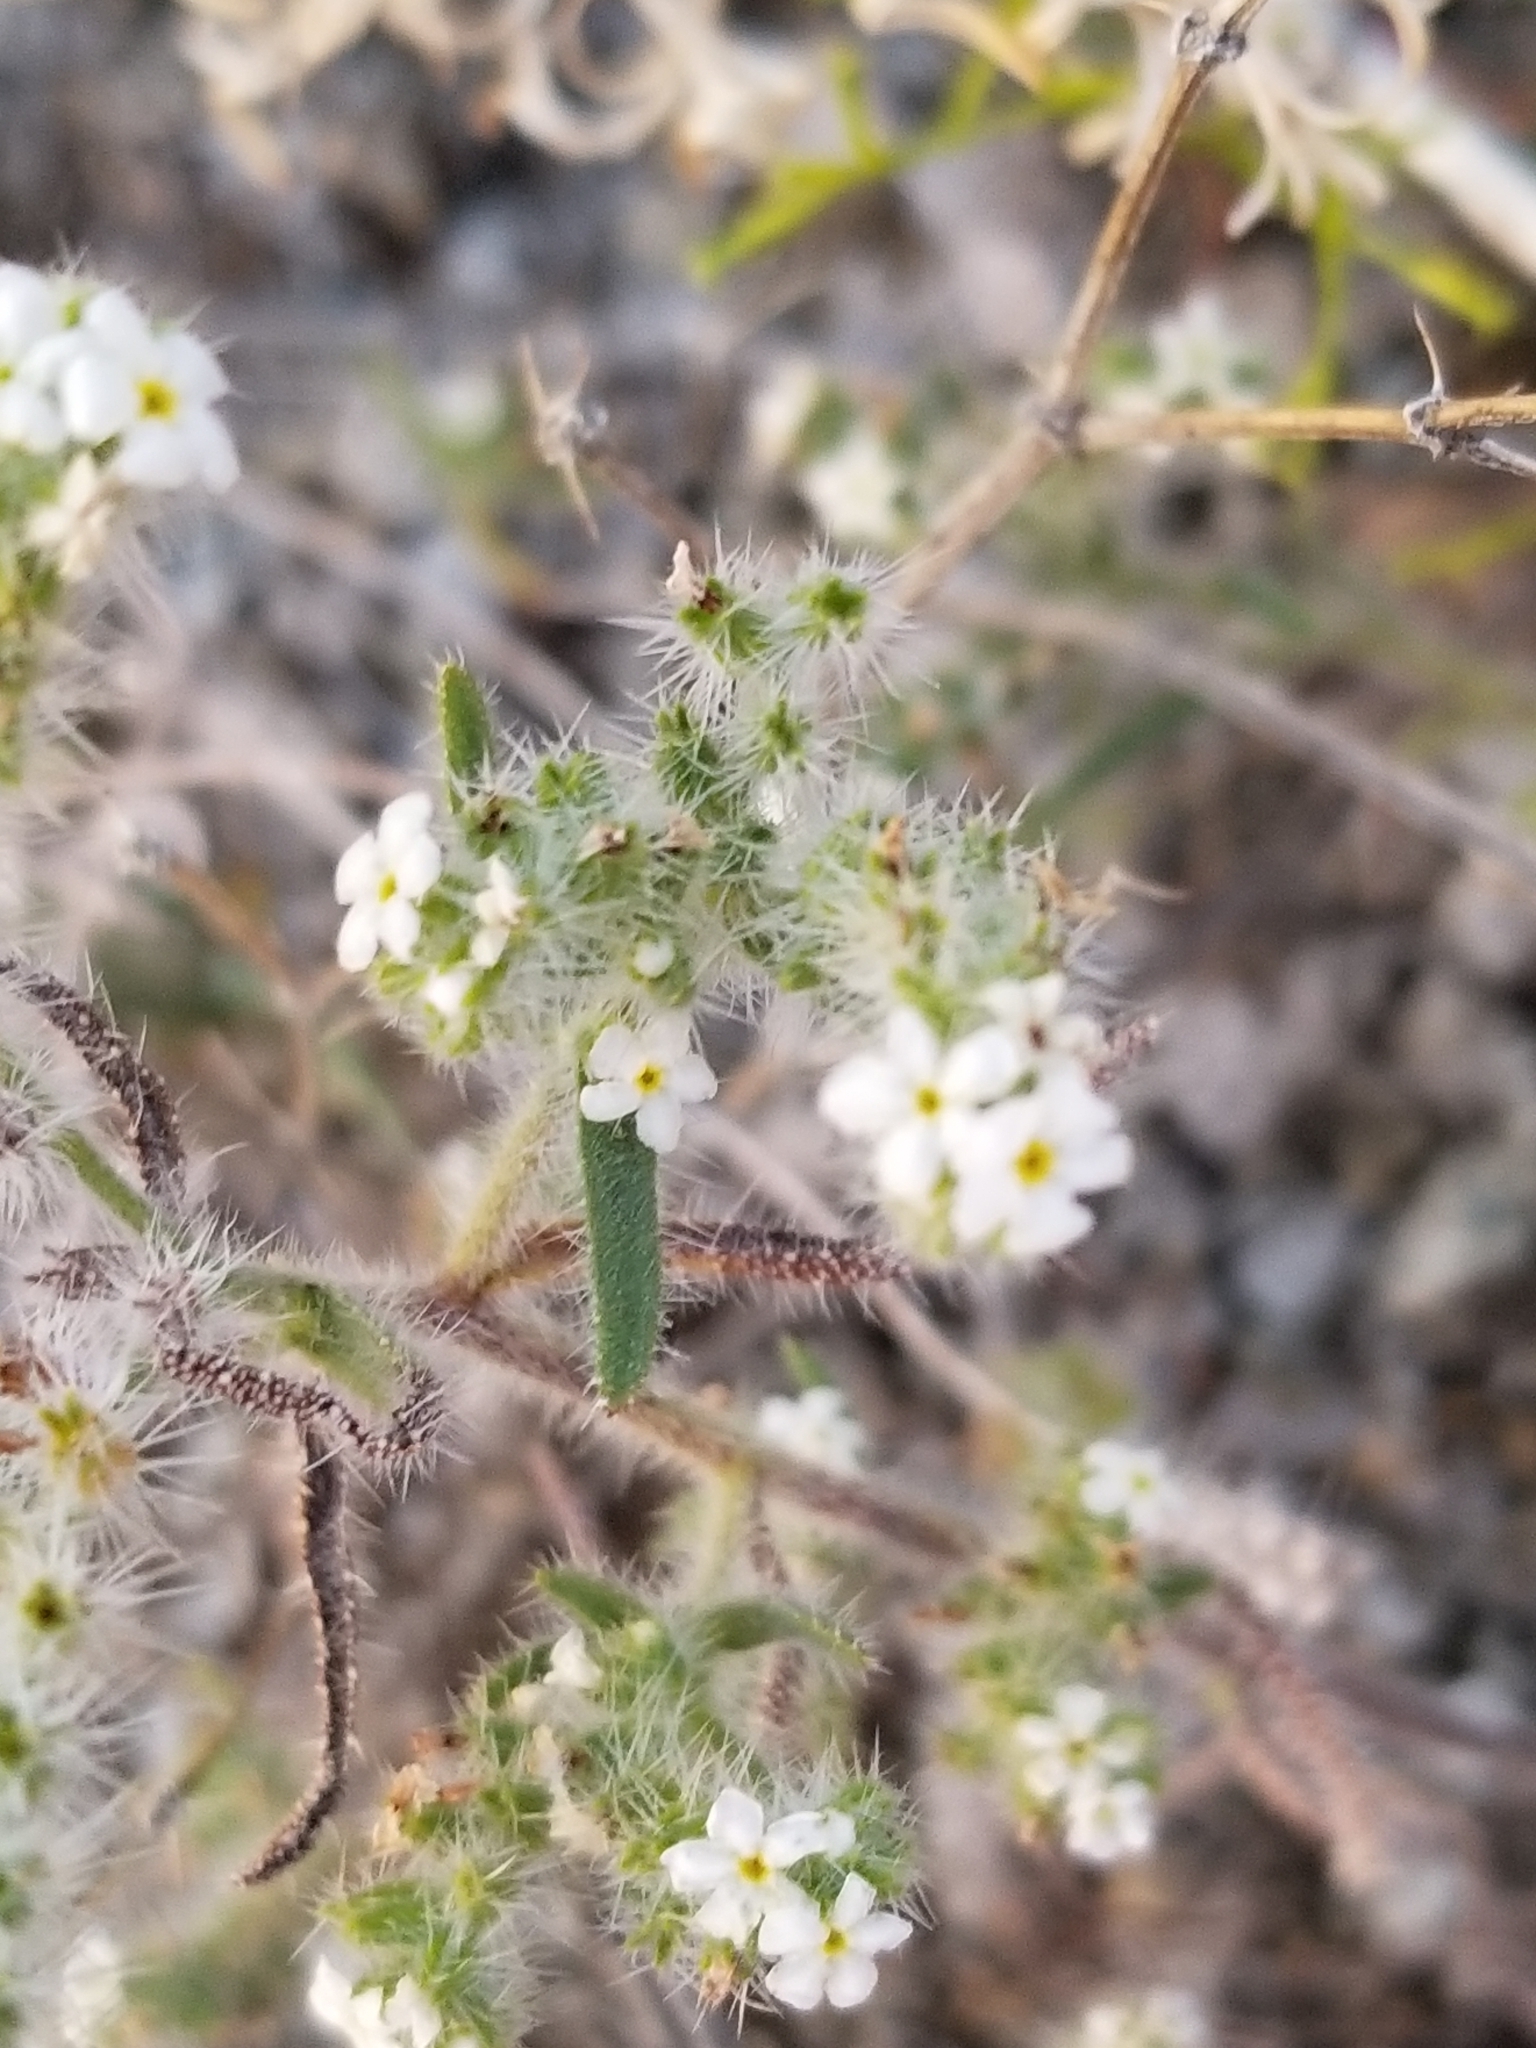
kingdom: Plantae
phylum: Tracheophyta
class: Magnoliopsida
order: Boraginales
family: Boraginaceae
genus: Johnstonella
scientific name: Johnstonella angustifolia
